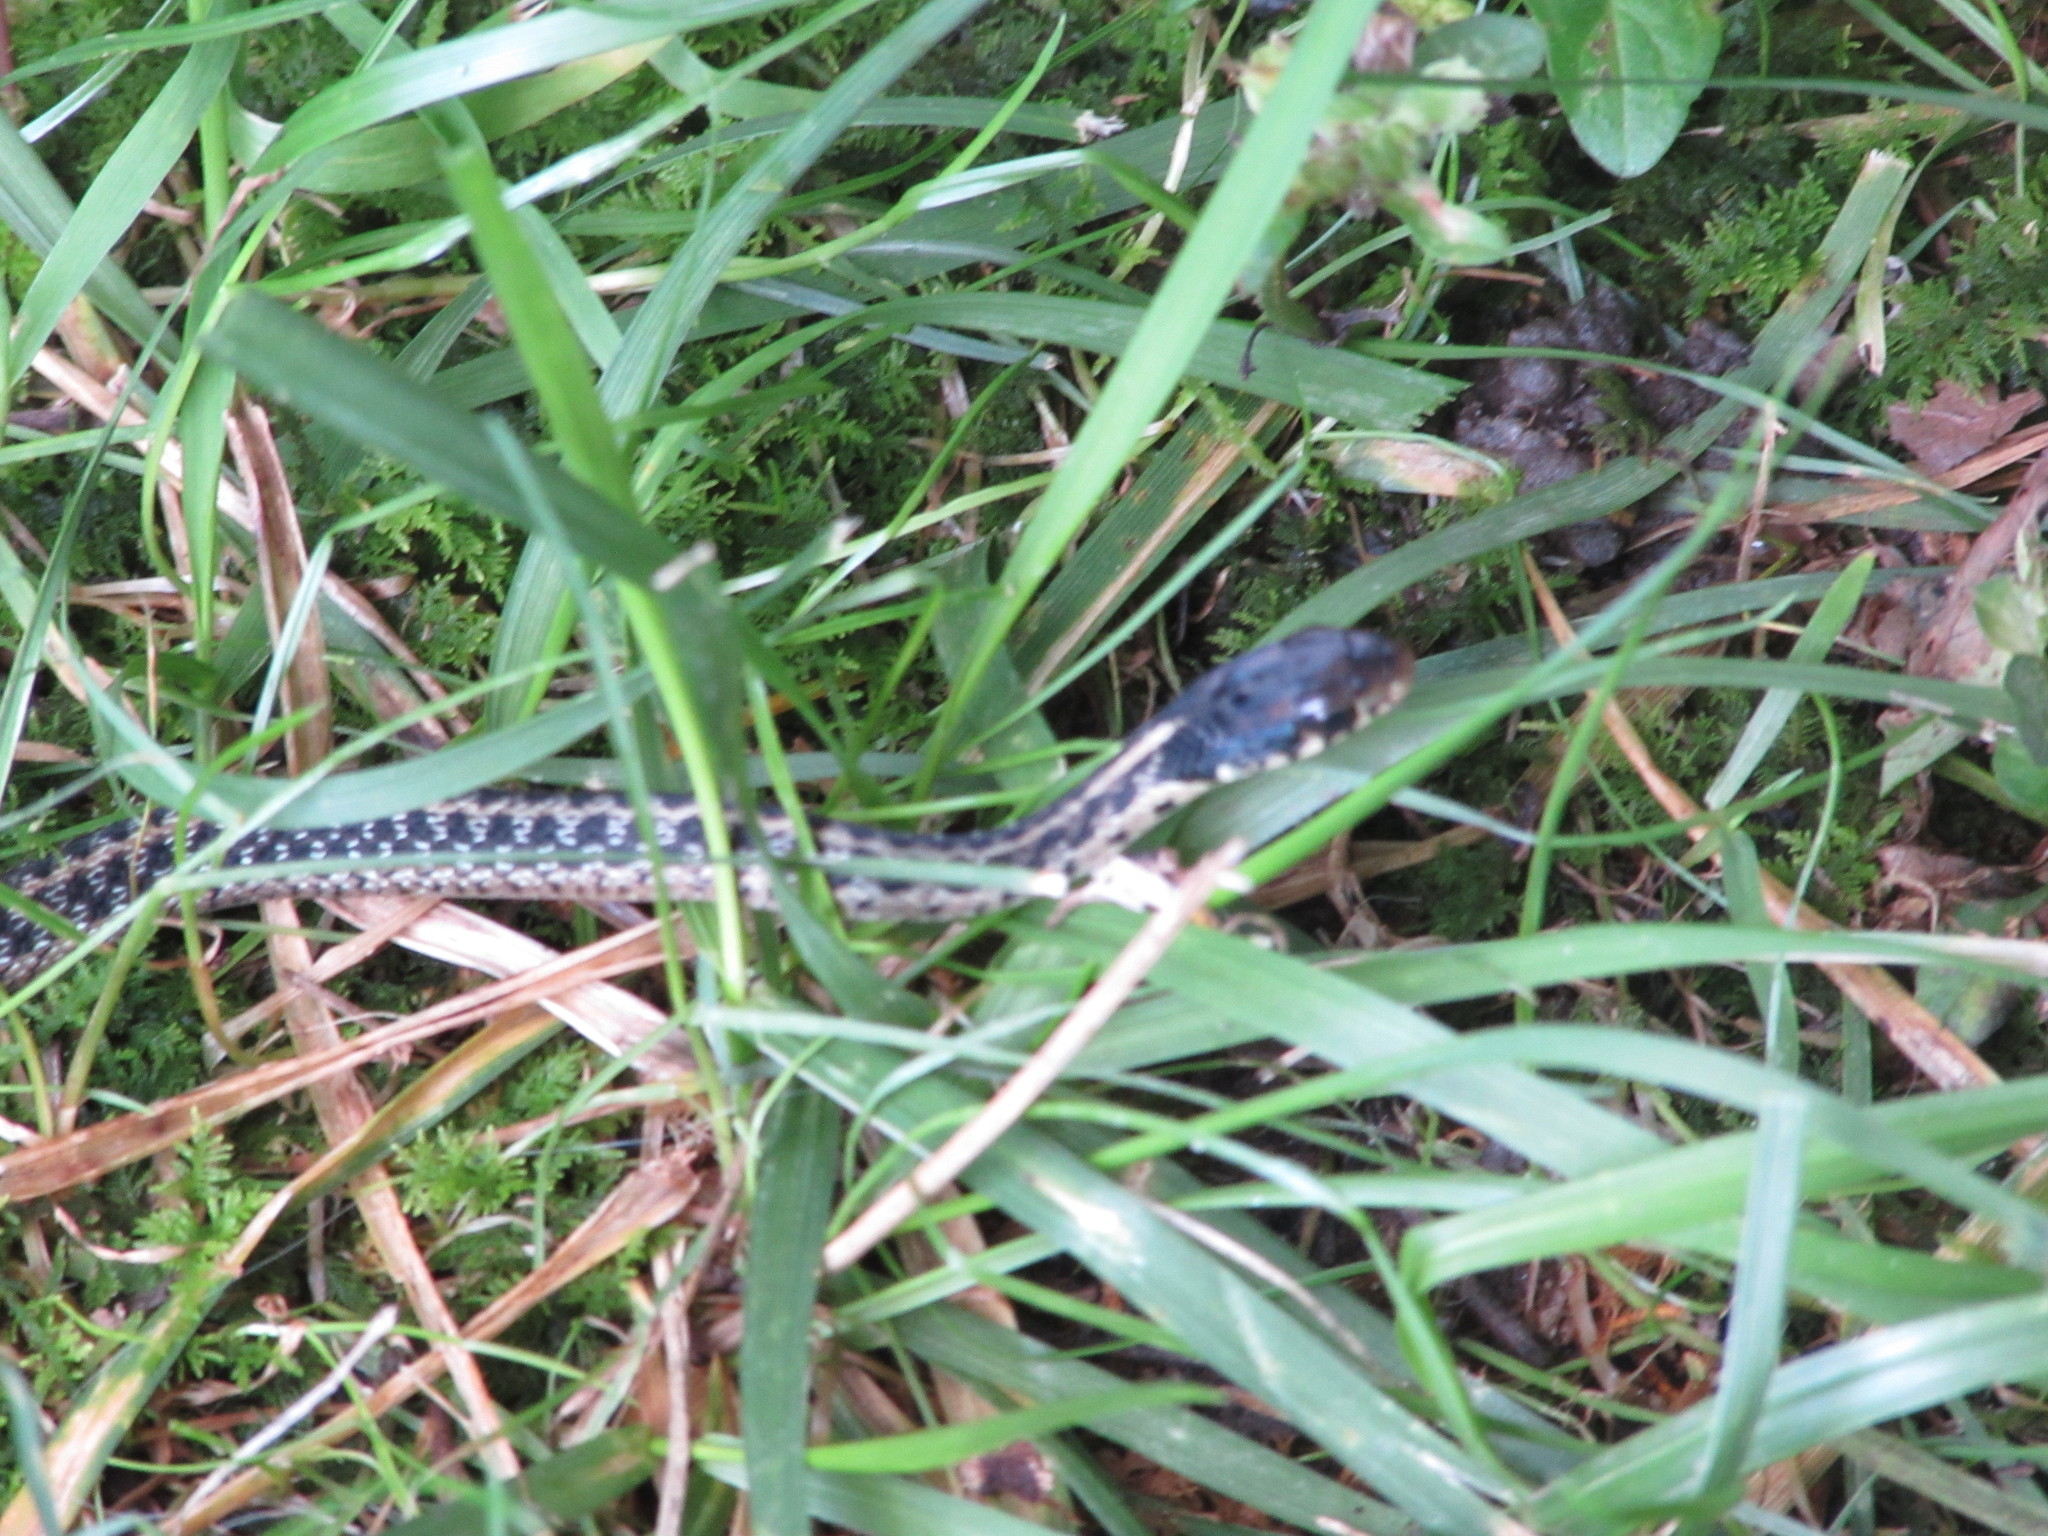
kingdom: Animalia
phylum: Chordata
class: Squamata
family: Colubridae
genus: Thamnophis
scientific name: Thamnophis sirtalis
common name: Common garter snake
